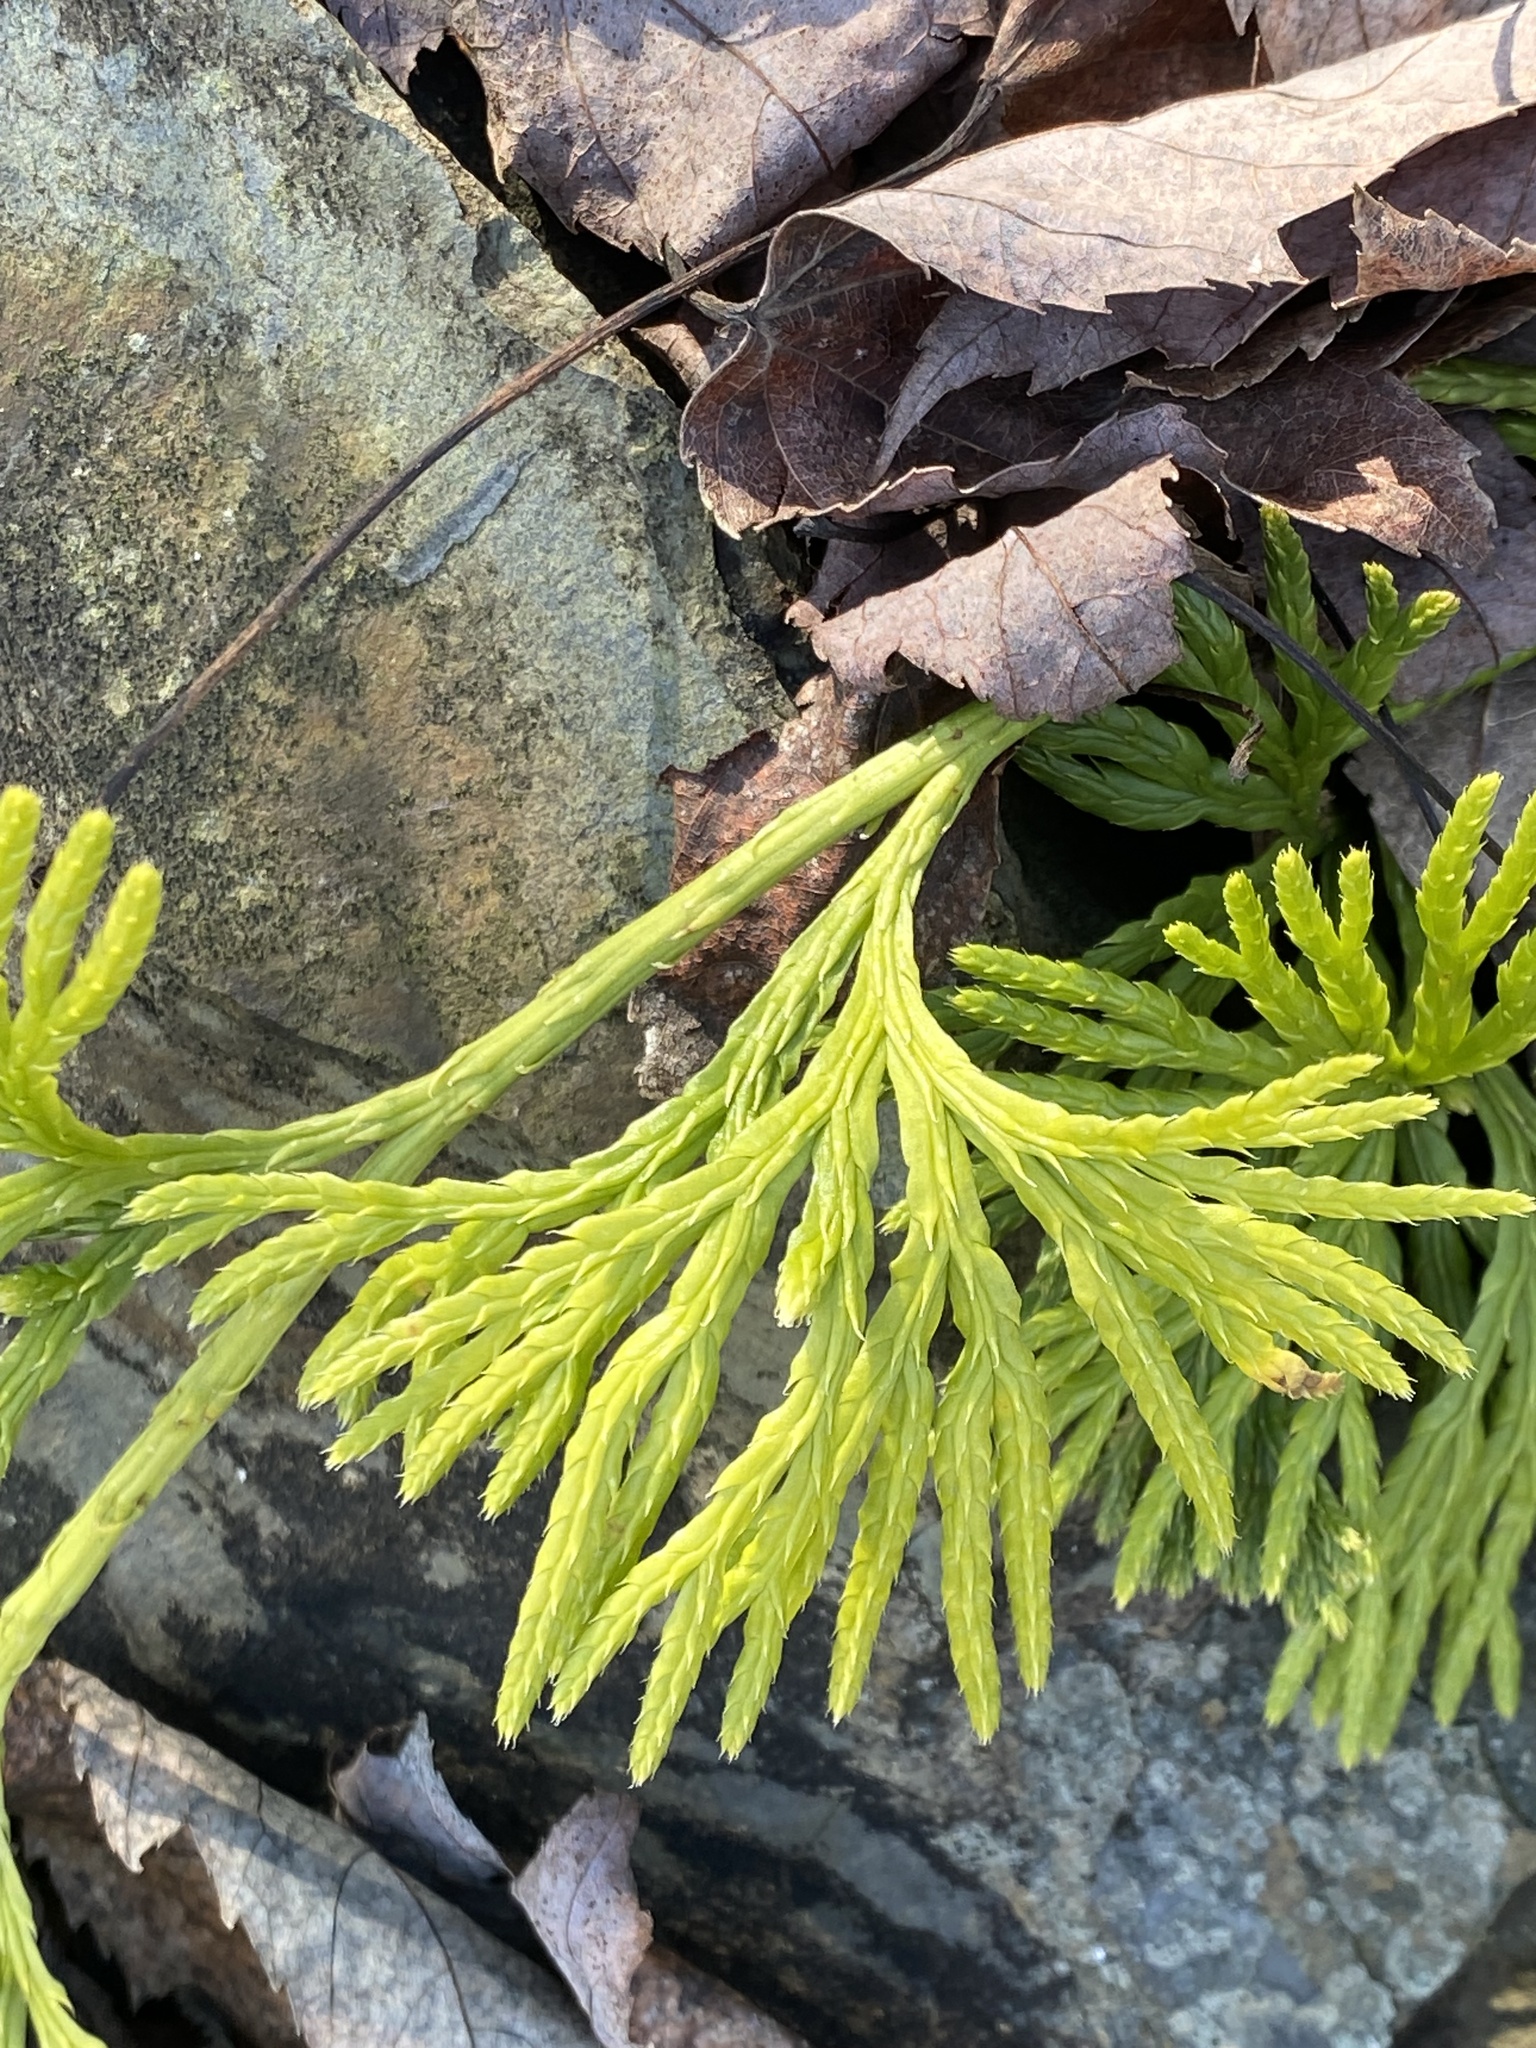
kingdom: Plantae
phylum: Tracheophyta
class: Lycopodiopsida
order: Lycopodiales
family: Lycopodiaceae
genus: Diphasiastrum
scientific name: Diphasiastrum digitatum
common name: Southern running-pine
